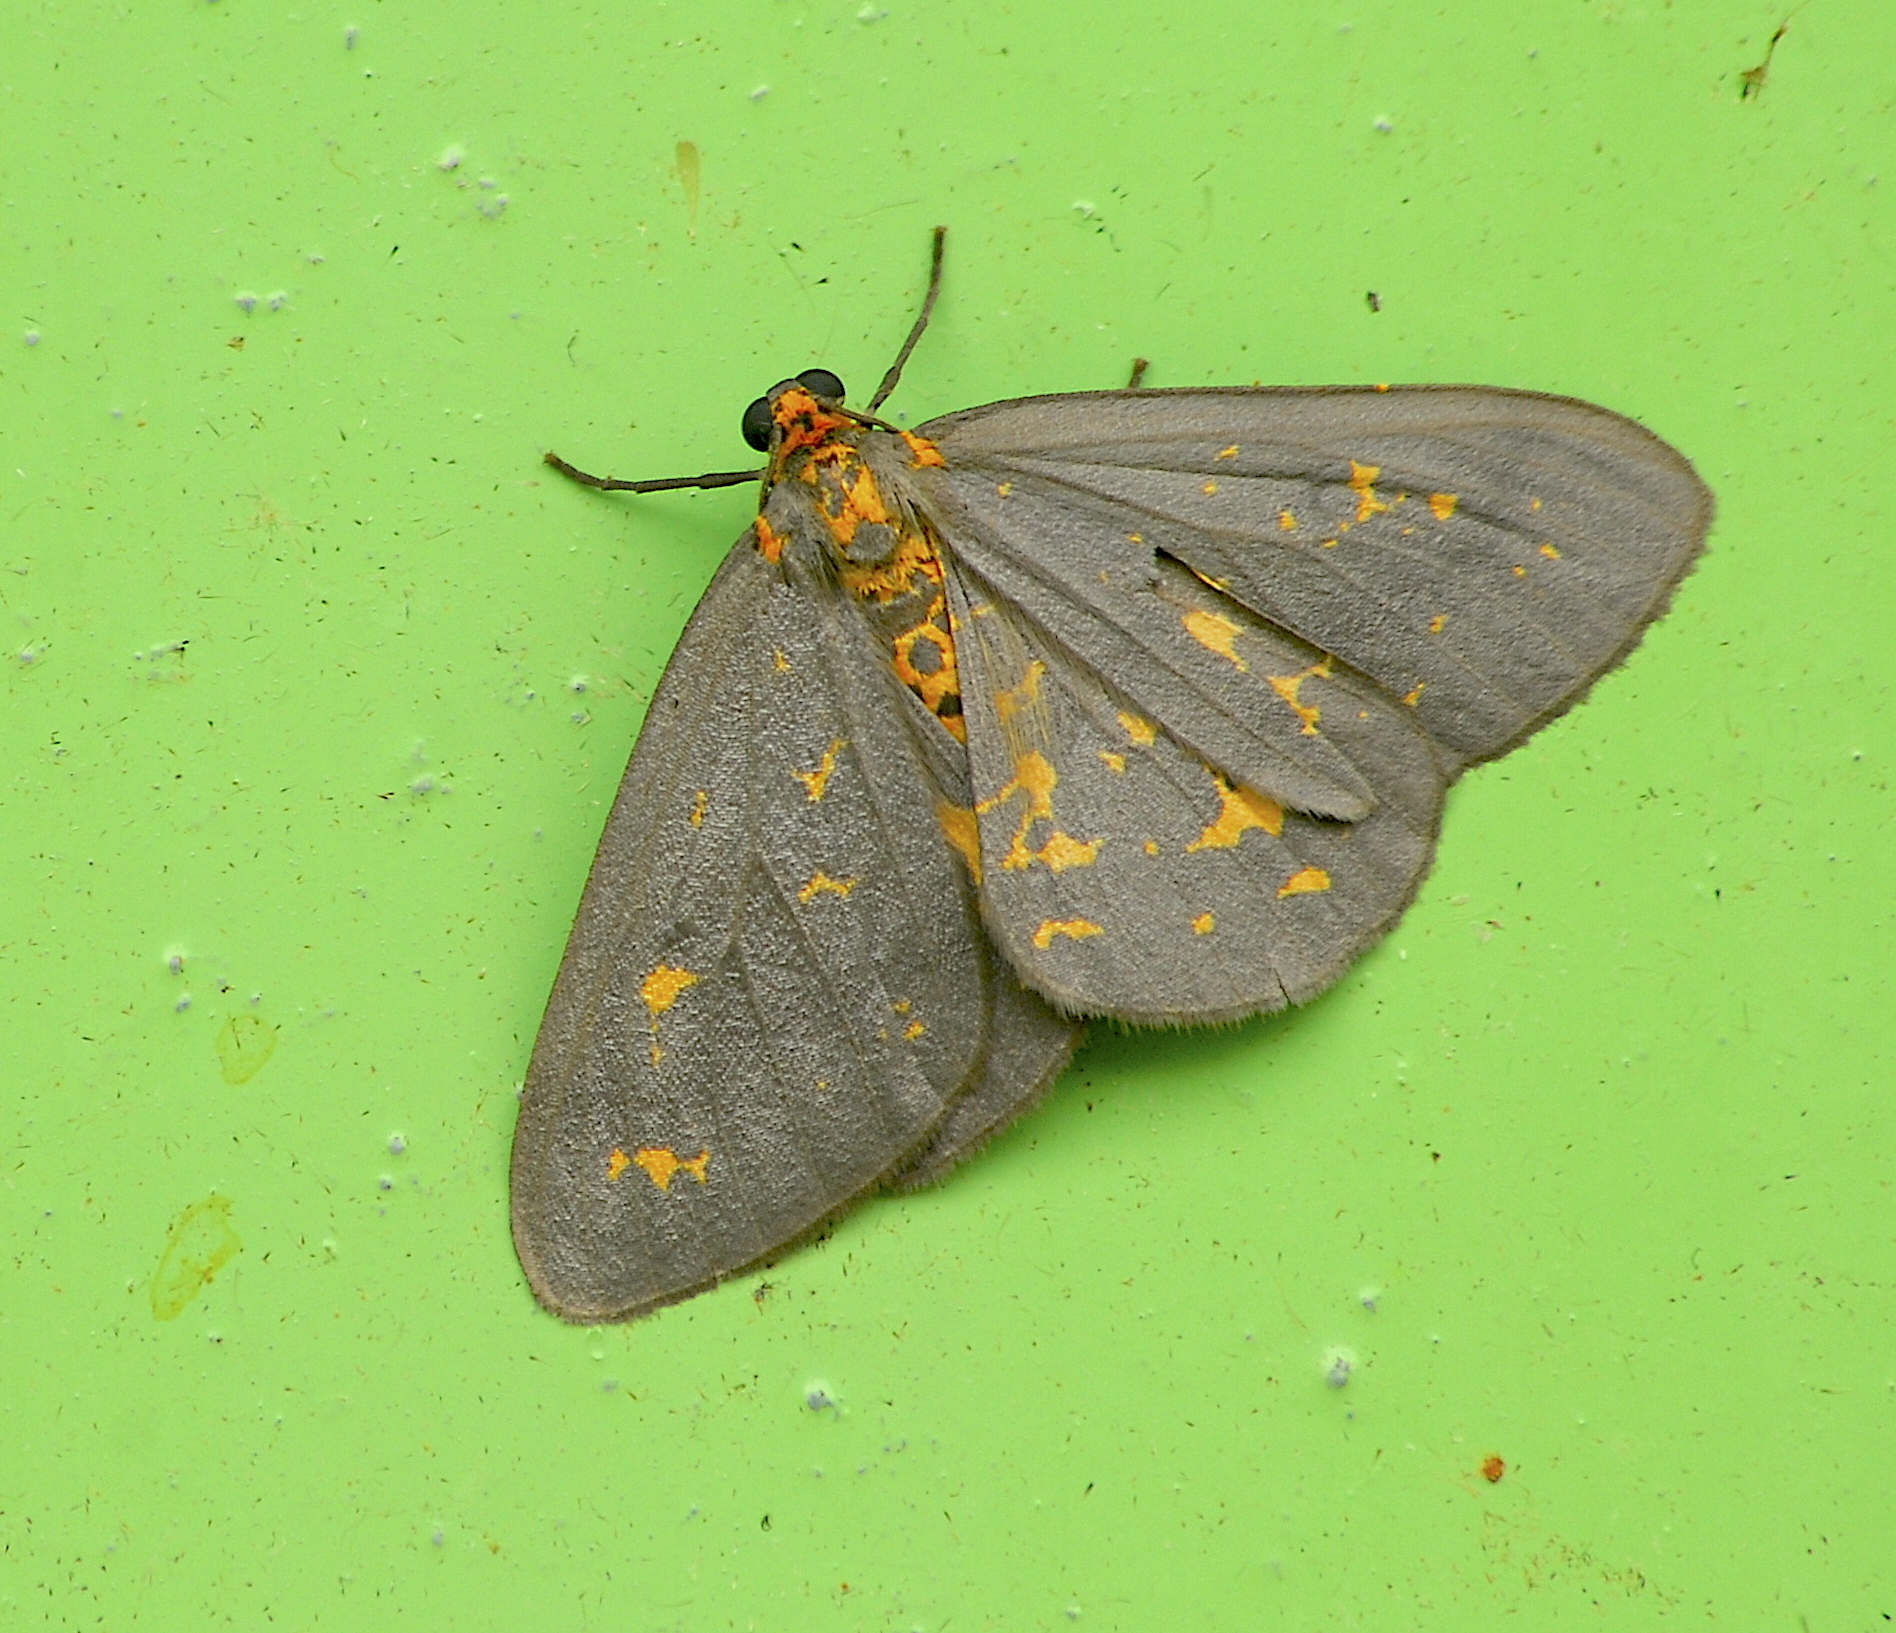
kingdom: Animalia
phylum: Arthropoda
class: Insecta
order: Lepidoptera
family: Geometridae
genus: Abraxas
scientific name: Abraxas poliaria
